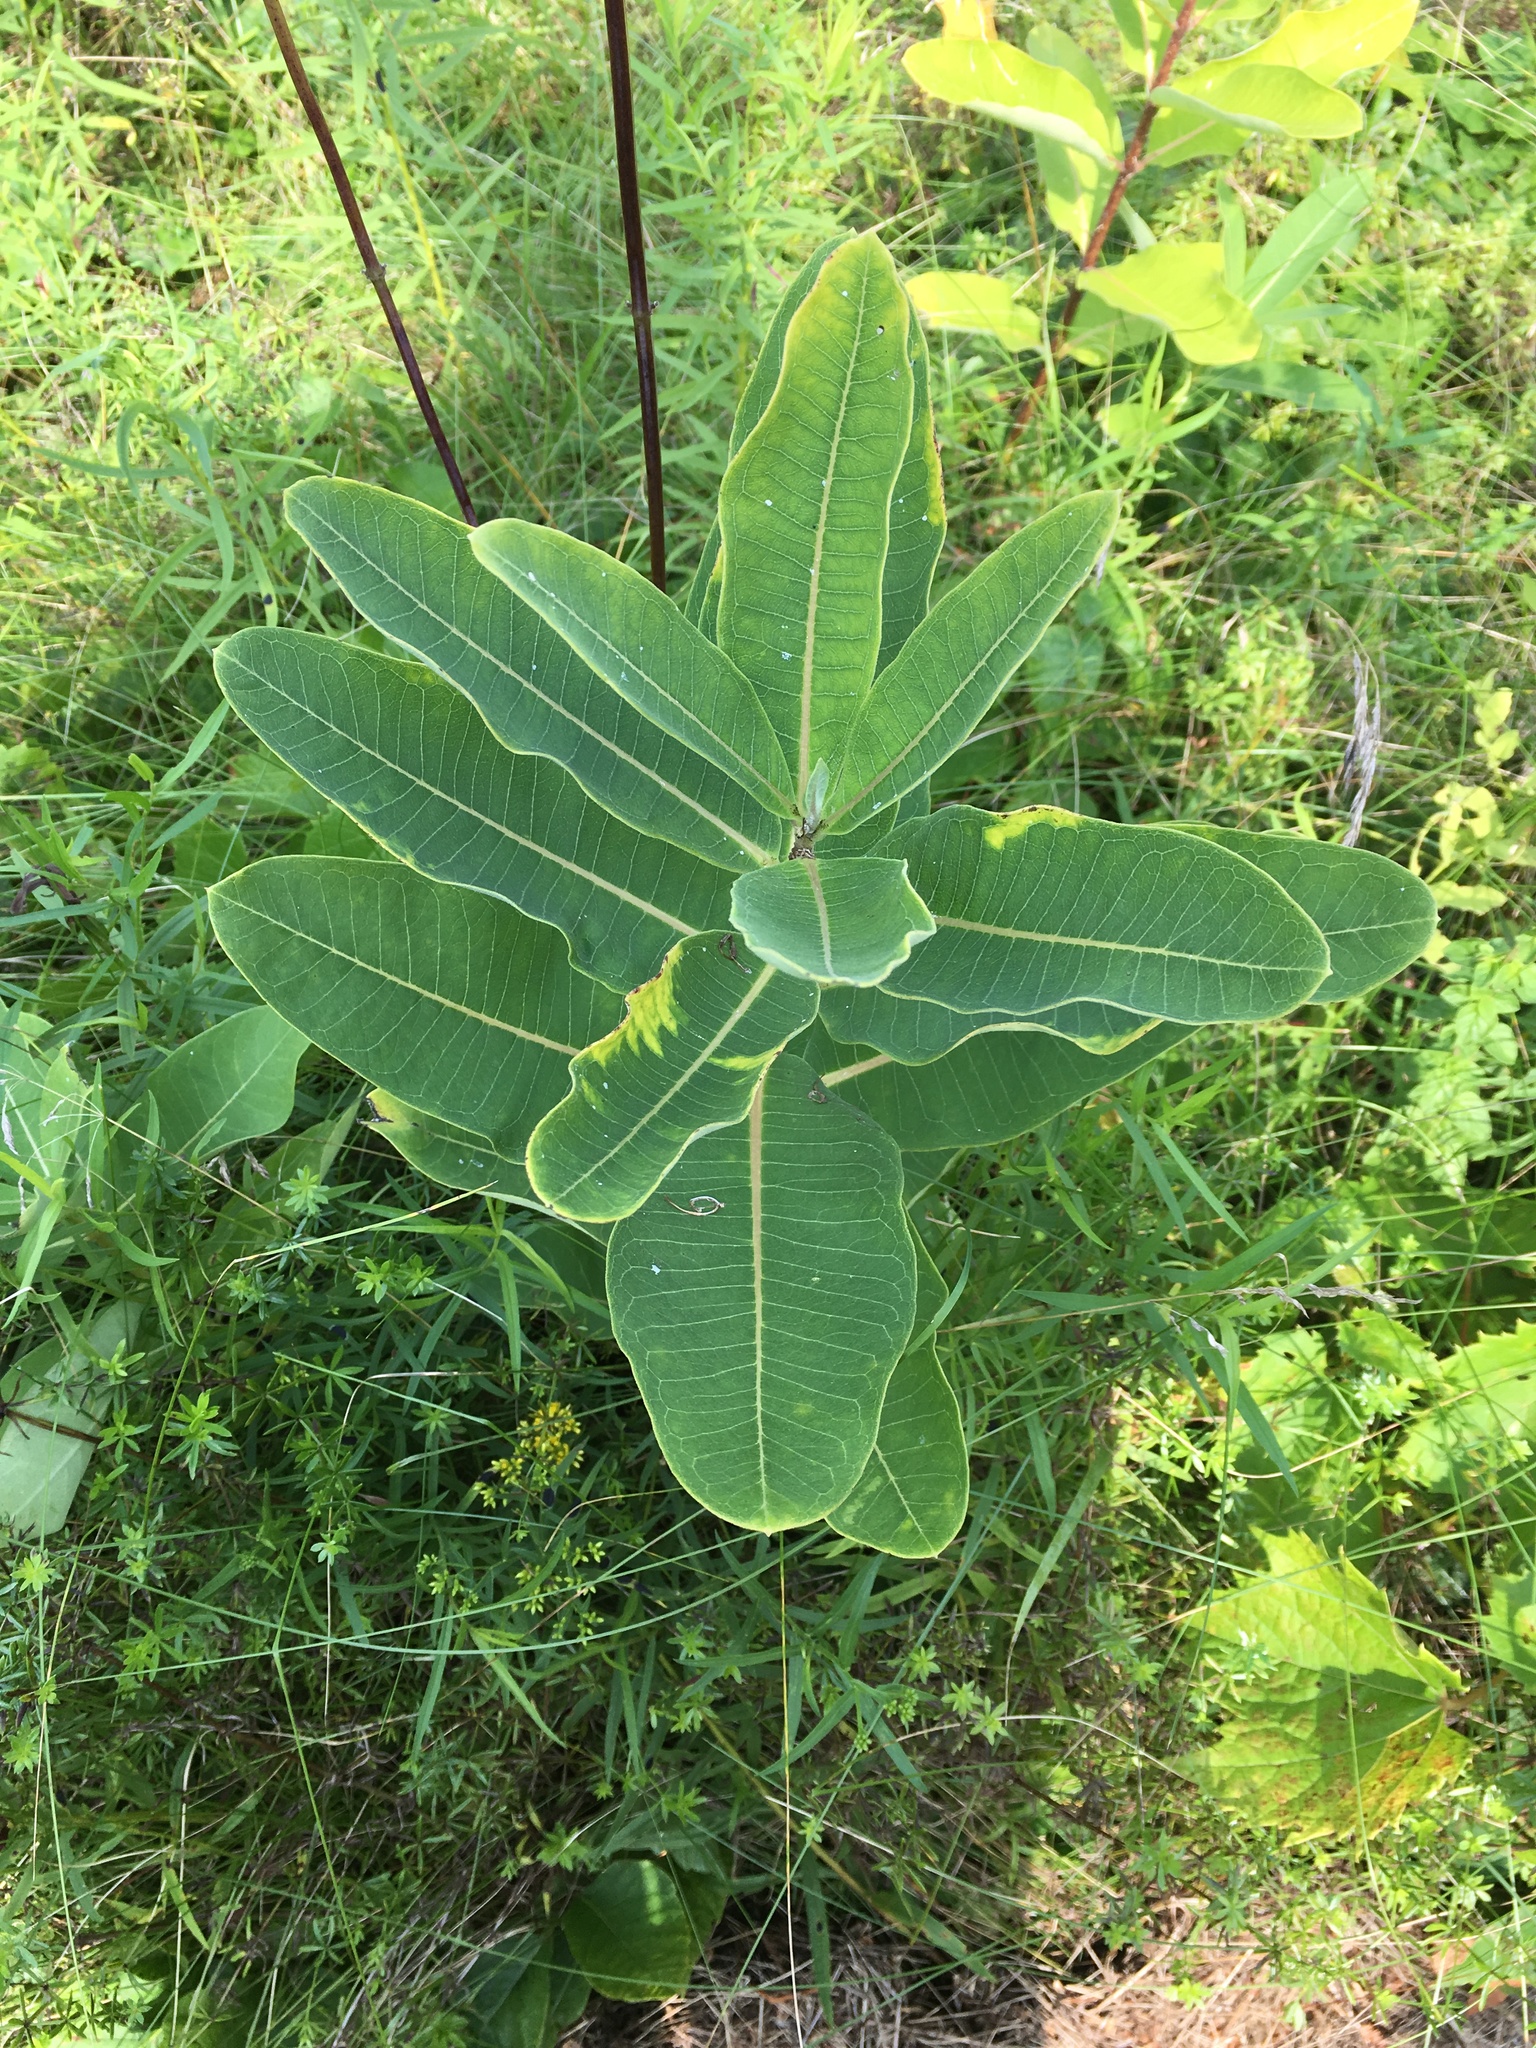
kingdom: Plantae
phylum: Tracheophyta
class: Magnoliopsida
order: Gentianales
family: Apocynaceae
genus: Asclepias
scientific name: Asclepias syriaca
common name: Common milkweed
